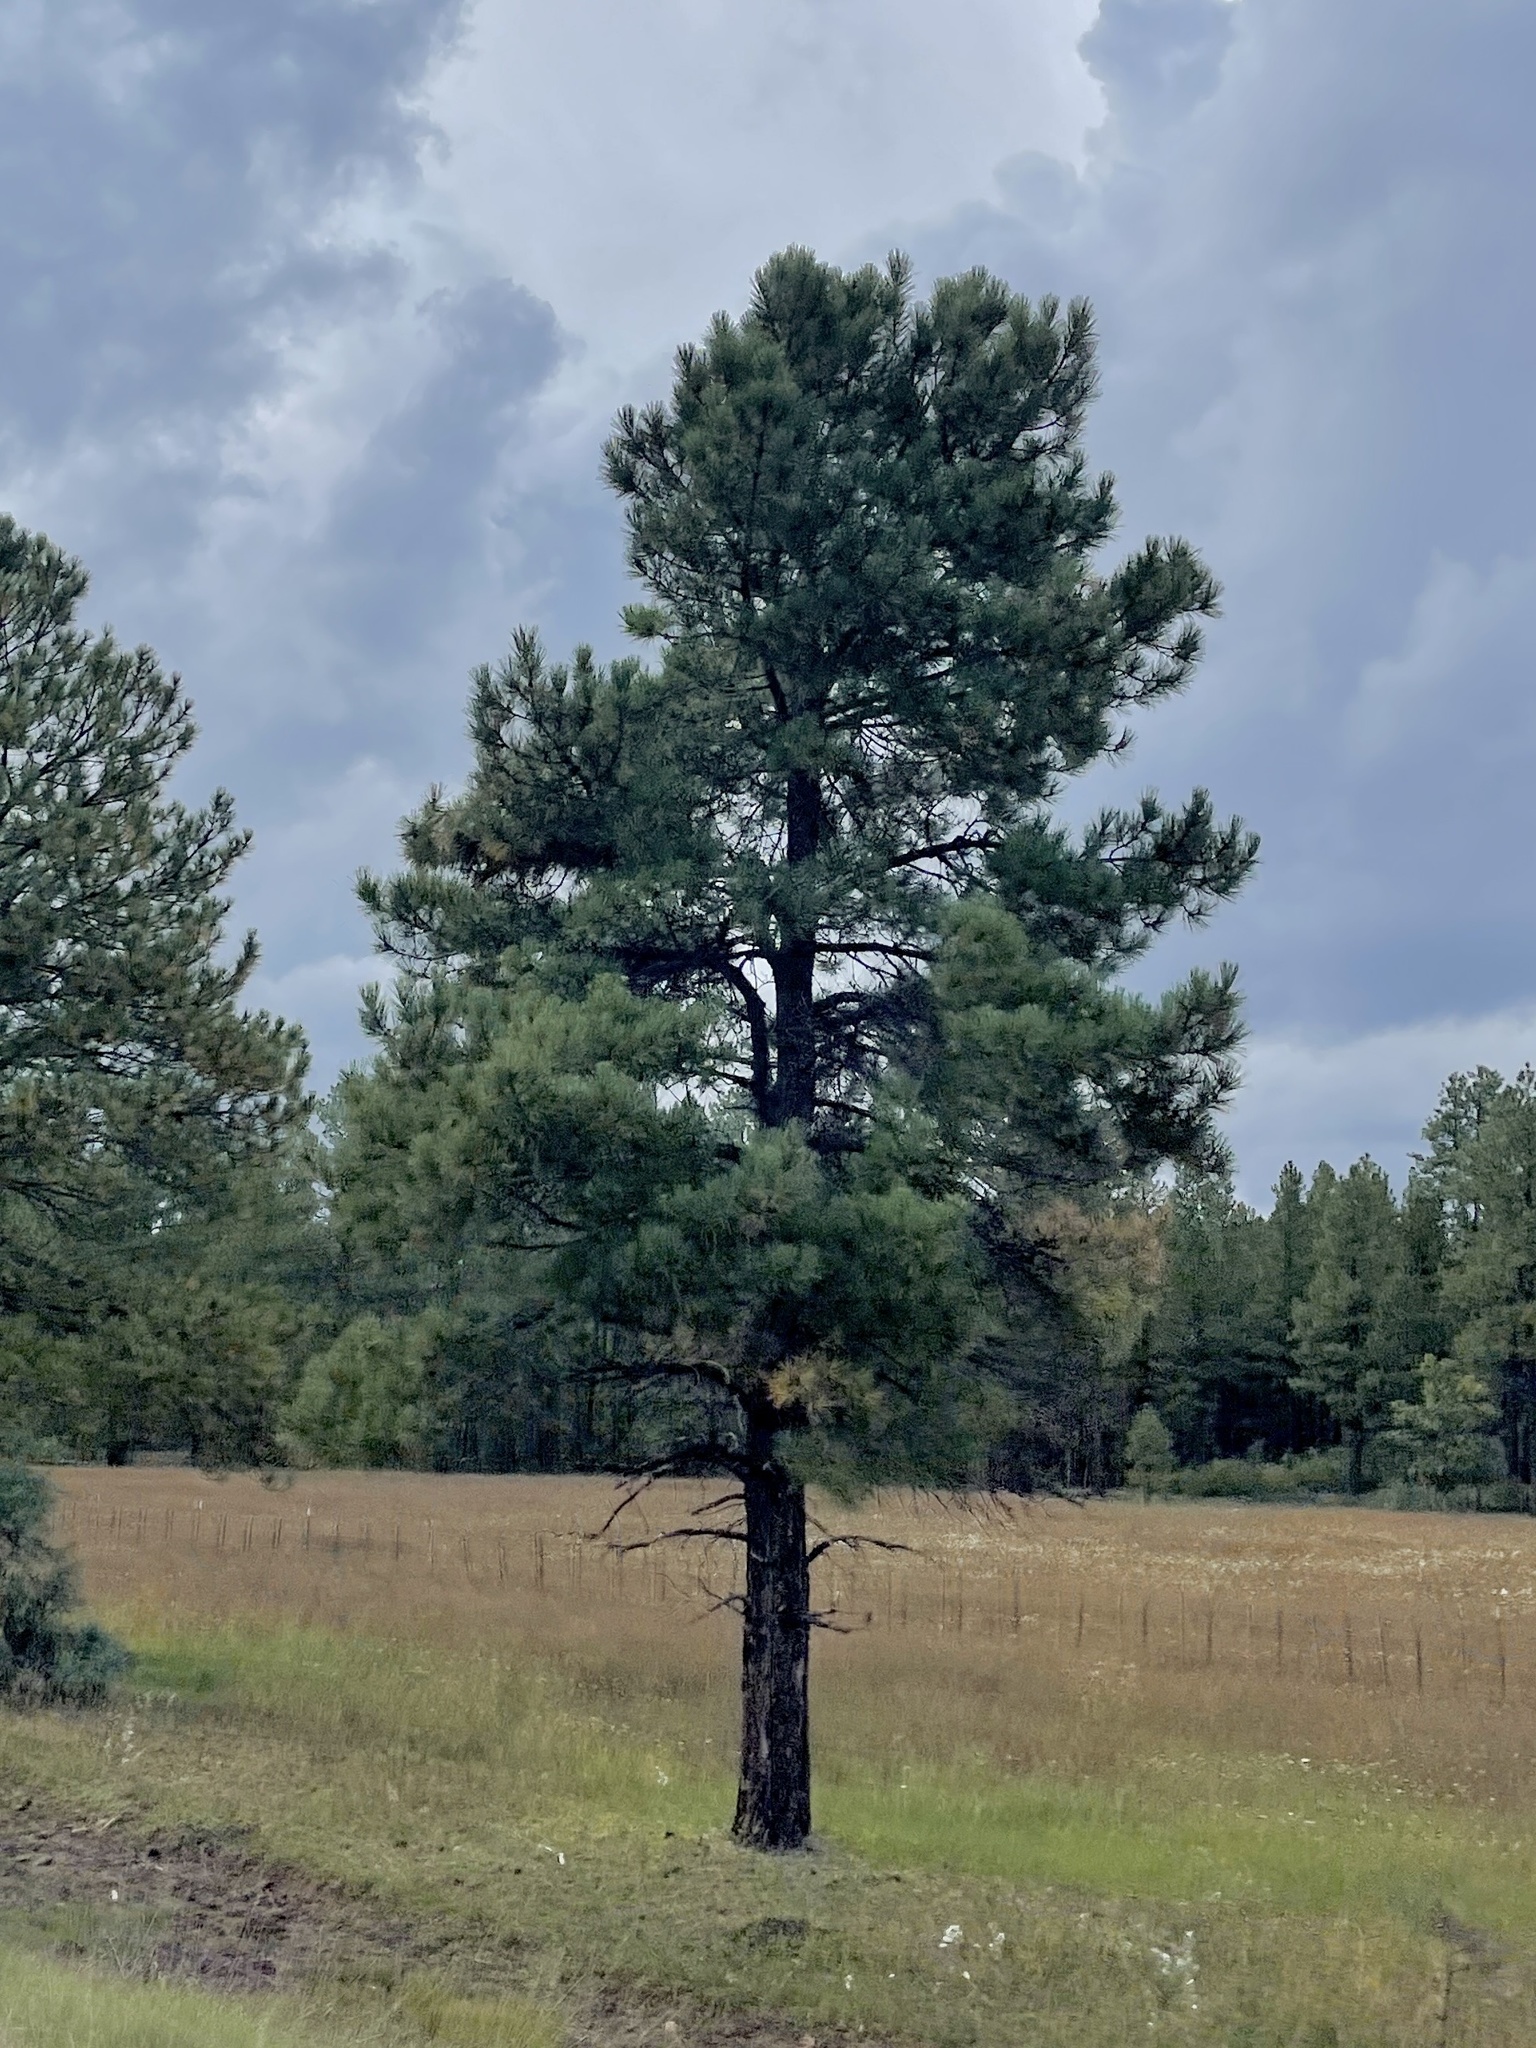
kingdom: Plantae
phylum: Tracheophyta
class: Pinopsida
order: Pinales
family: Pinaceae
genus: Pinus
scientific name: Pinus ponderosa
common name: Western yellow-pine
